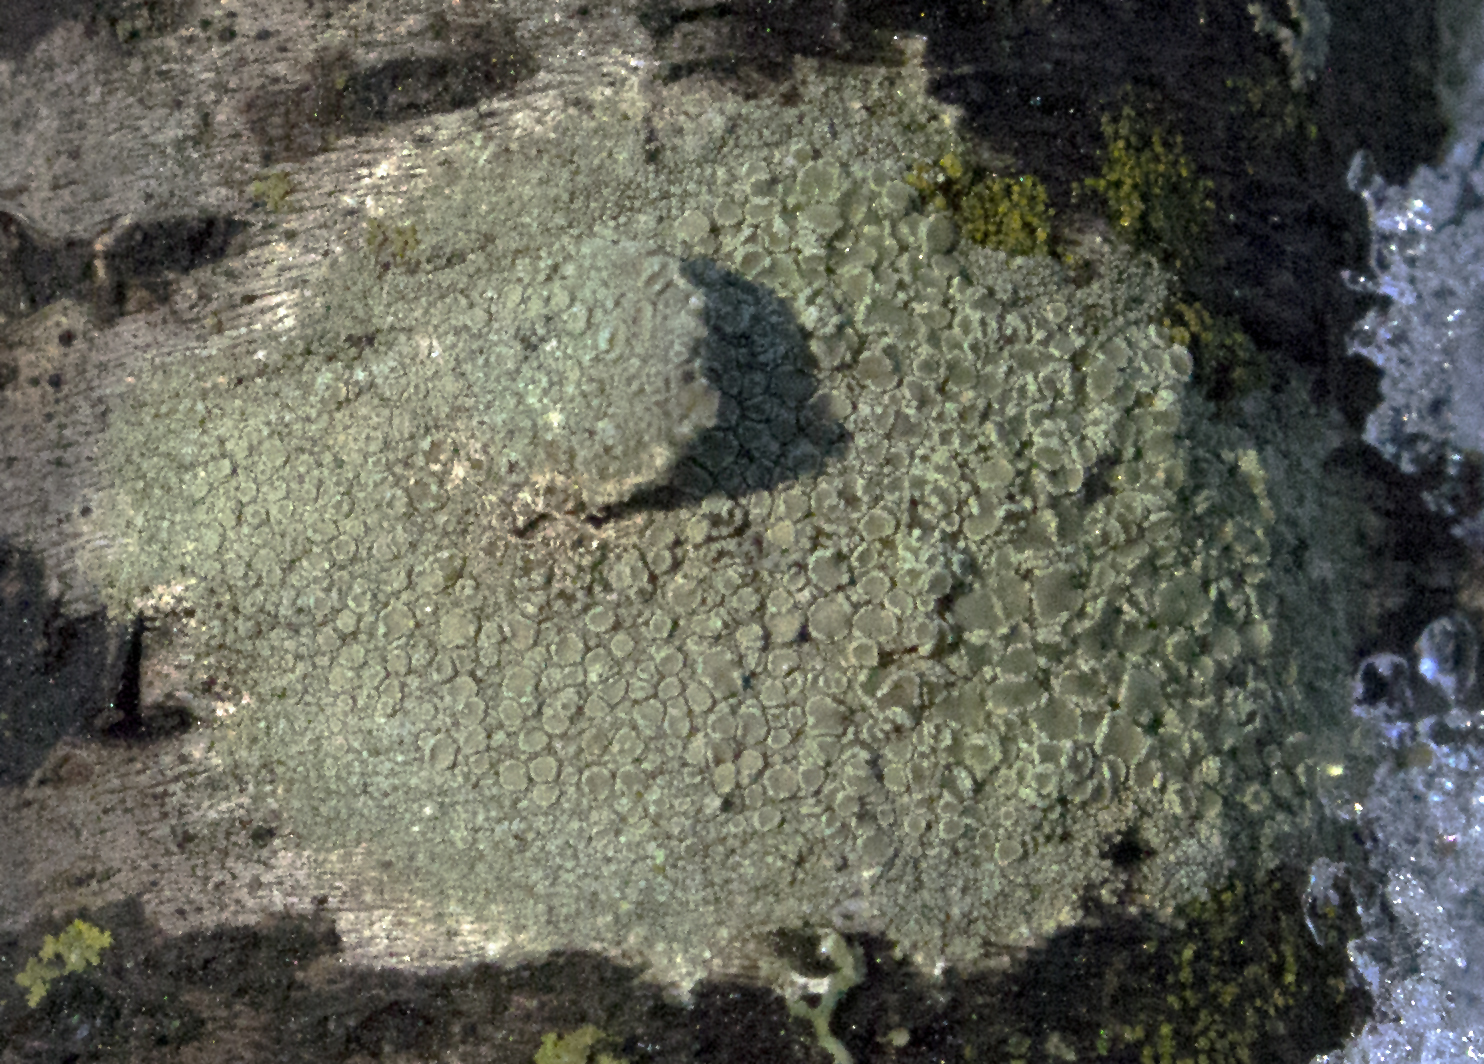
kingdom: Fungi
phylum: Ascomycota
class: Lecanoromycetes
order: Lecanorales
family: Lecanoraceae
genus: Lecanora
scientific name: Lecanora strobilina
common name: Mealy rim-lichen
